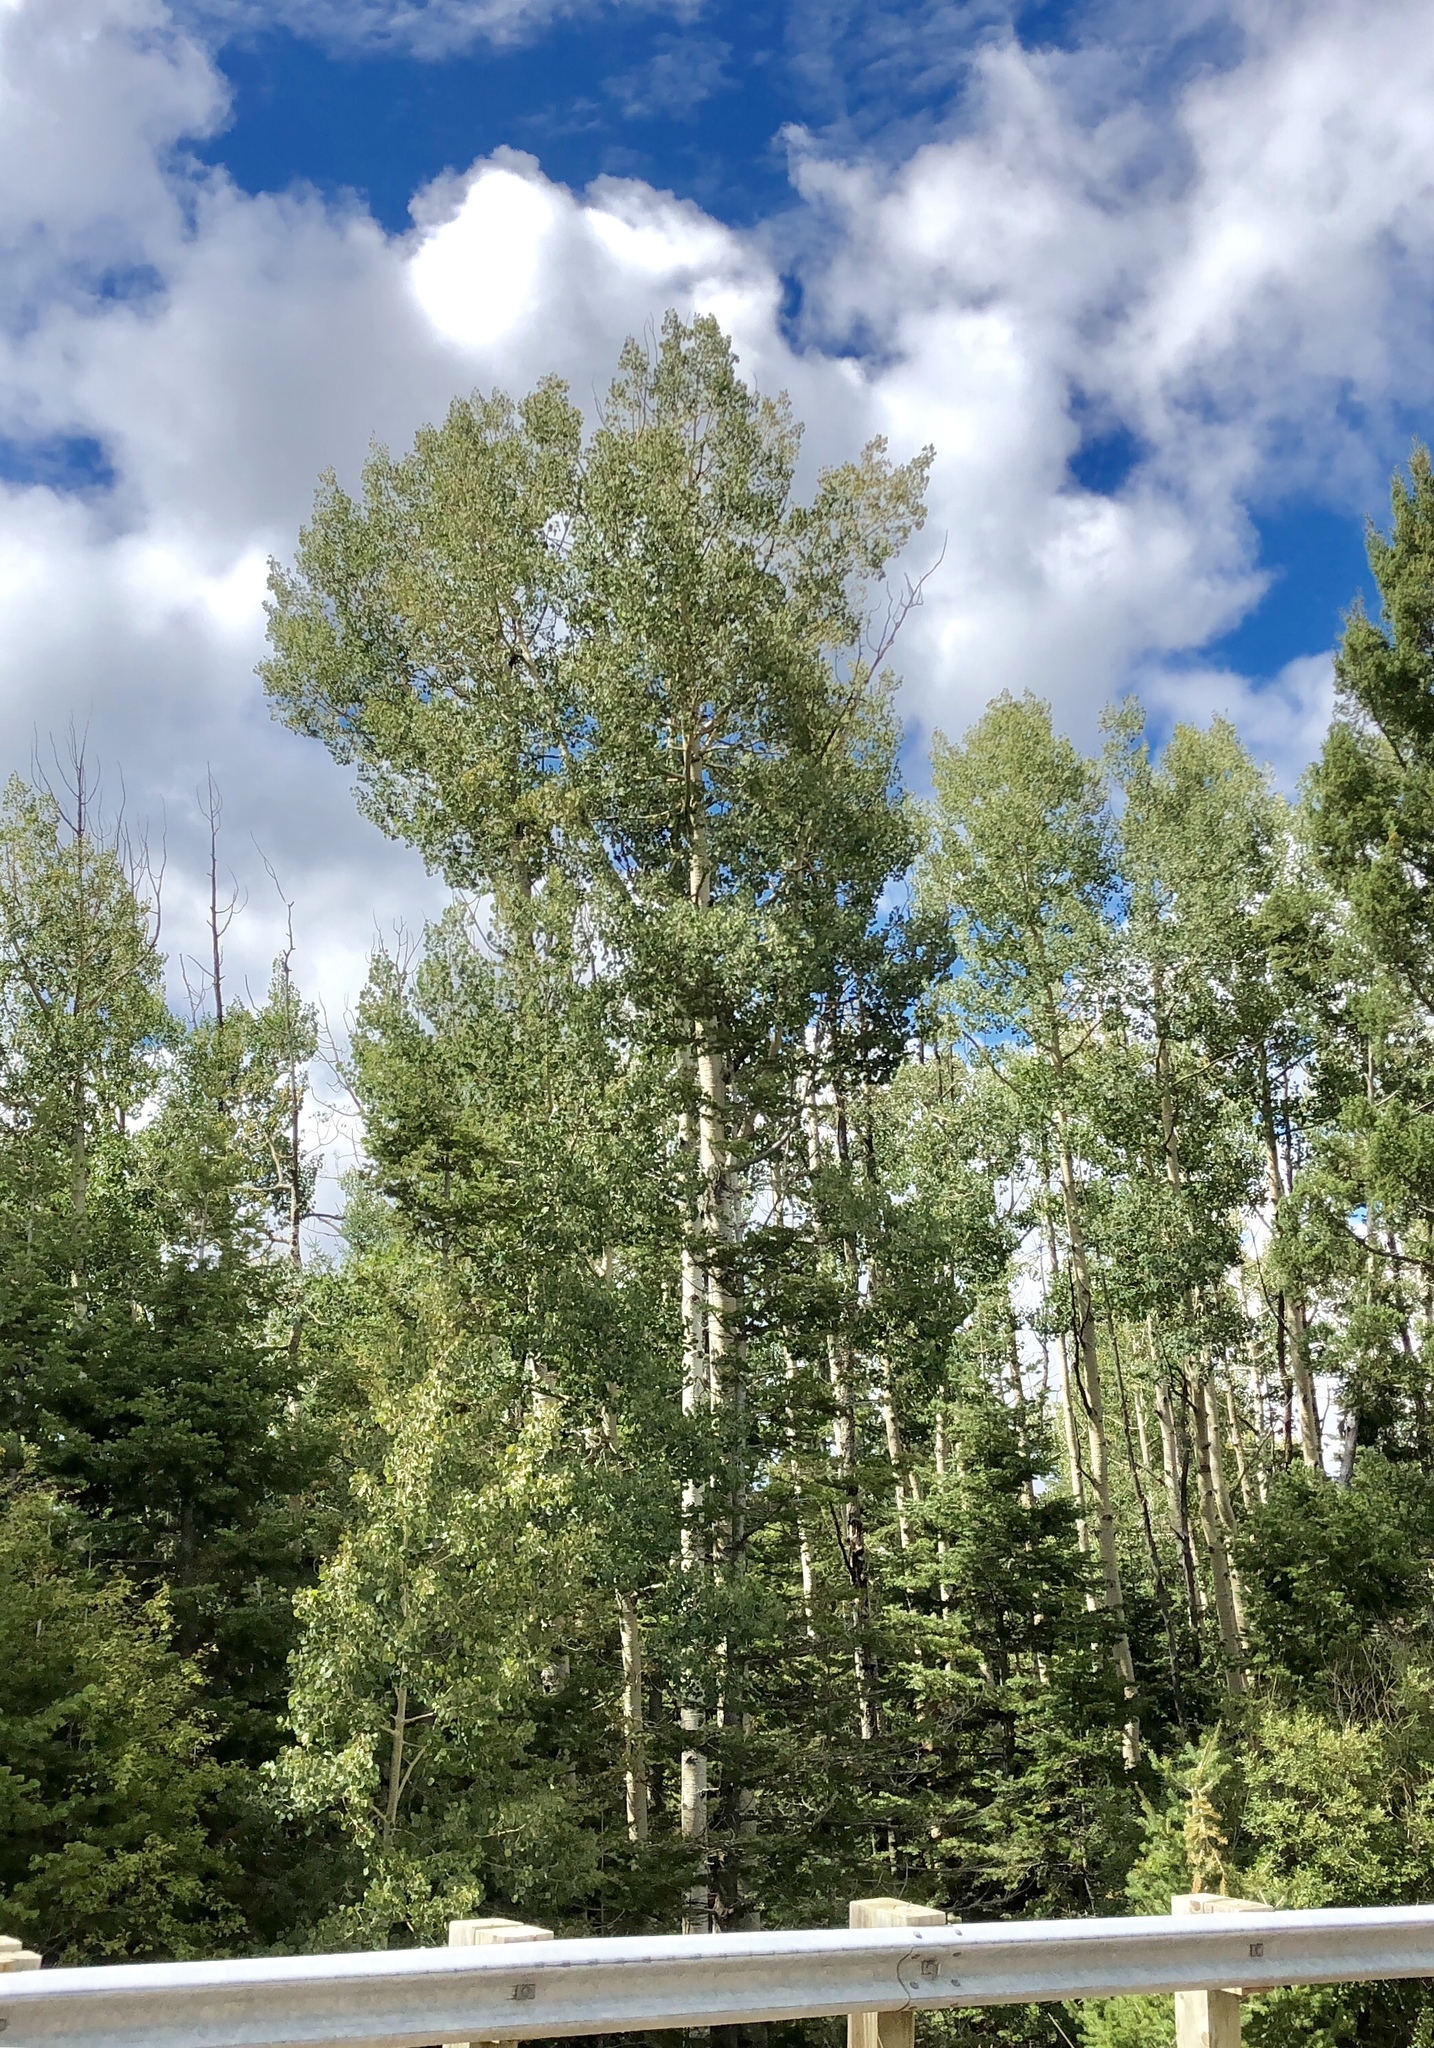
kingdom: Plantae
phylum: Tracheophyta
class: Magnoliopsida
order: Malpighiales
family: Salicaceae
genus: Populus
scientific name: Populus tremuloides
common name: Quaking aspen
